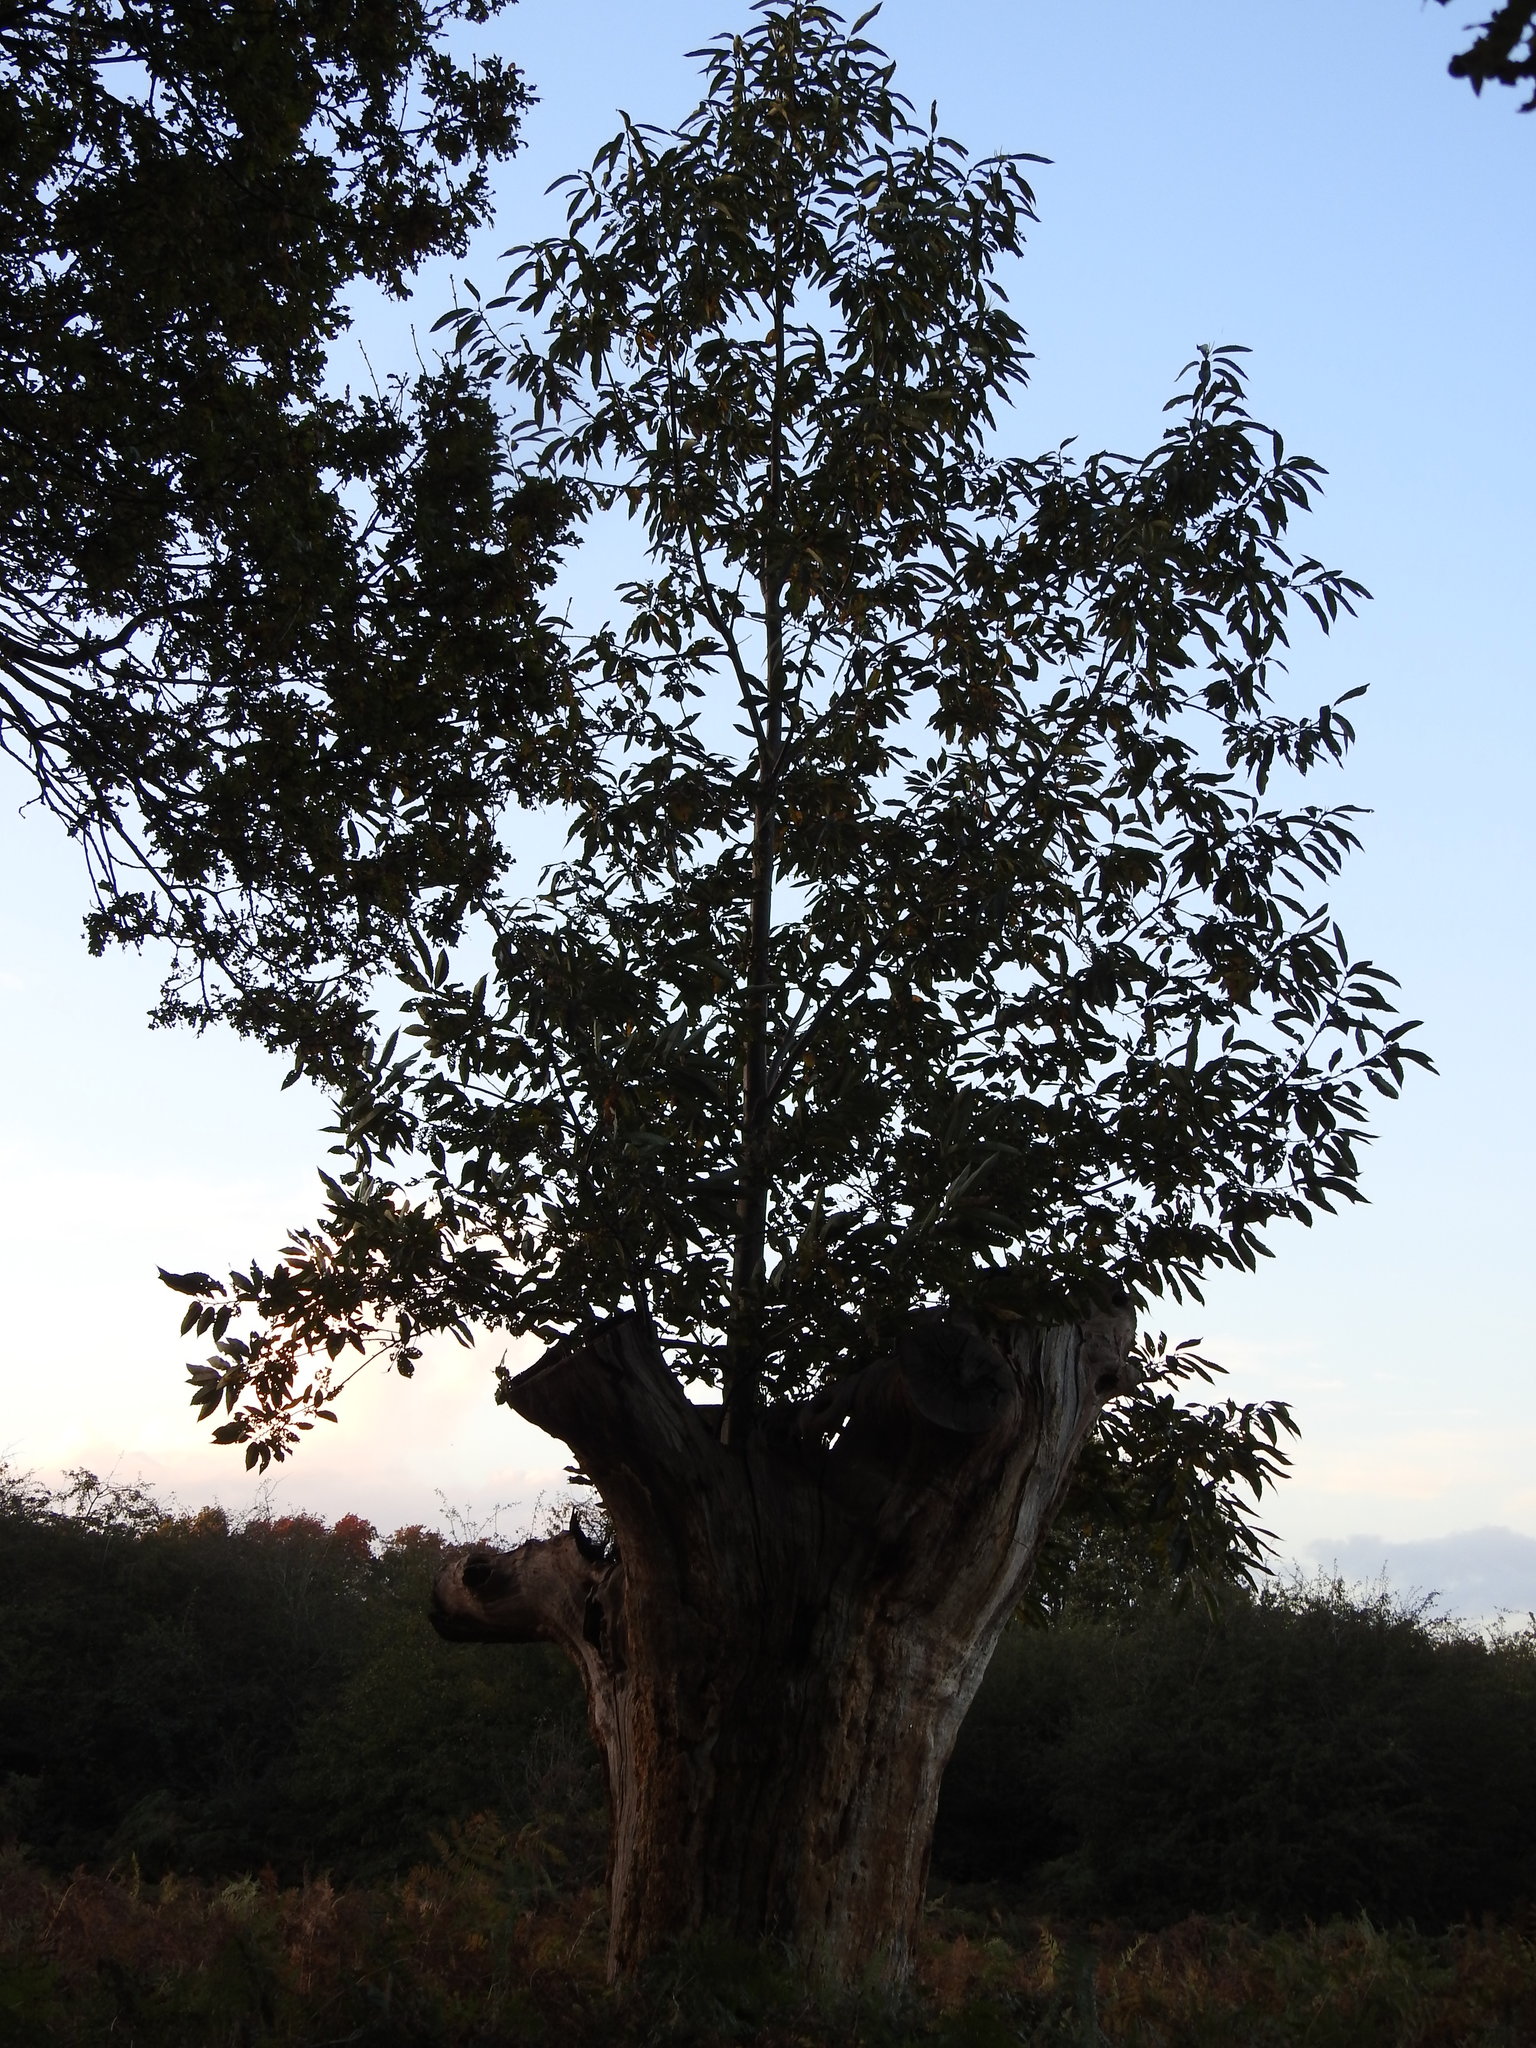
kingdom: Plantae
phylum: Tracheophyta
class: Magnoliopsida
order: Fagales
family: Fagaceae
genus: Castanea
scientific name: Castanea sativa
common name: Sweet chestnut
